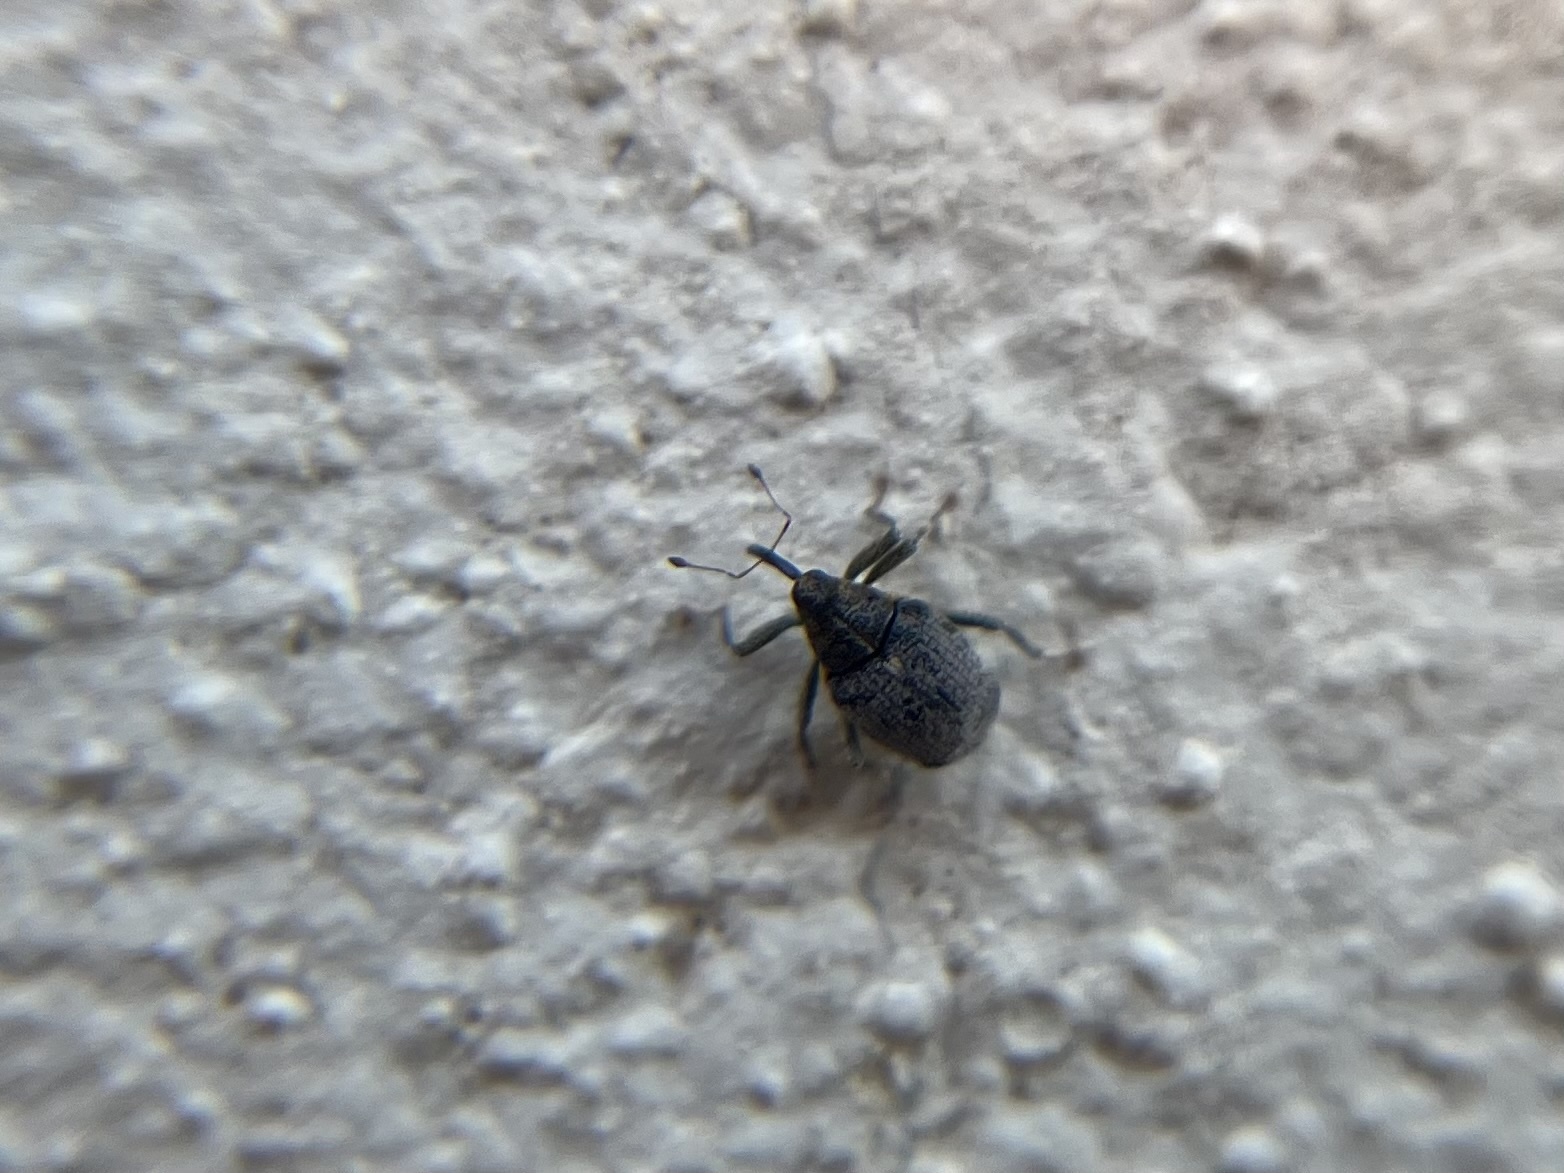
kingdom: Animalia
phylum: Arthropoda
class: Insecta
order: Coleoptera
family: Curculionidae
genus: Ceutorhynchus
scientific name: Ceutorhynchus pallidactylus
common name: Cabbage stem weavil
